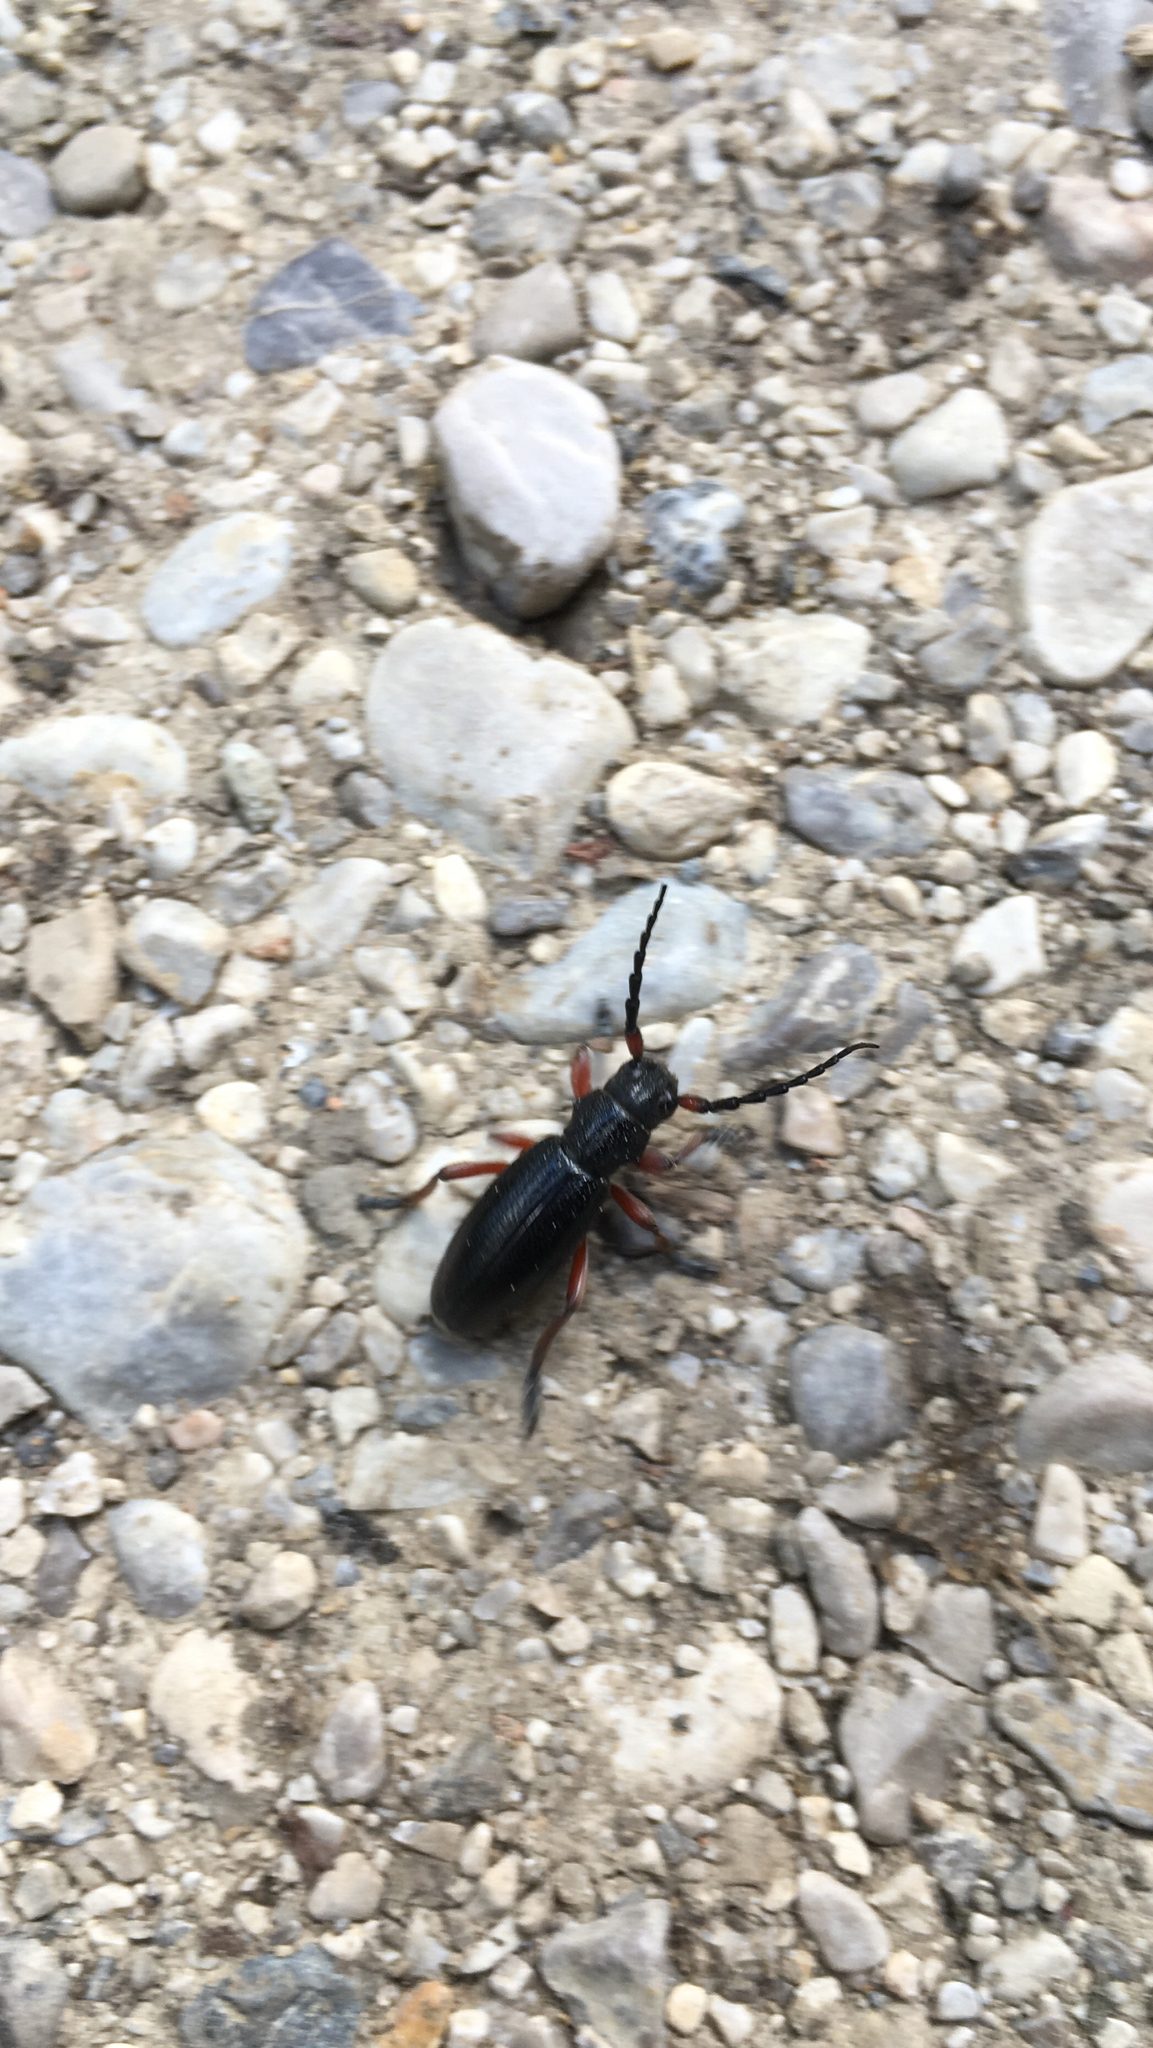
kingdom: Animalia
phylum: Arthropoda
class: Insecta
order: Coleoptera
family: Cerambycidae
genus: Dorcadion
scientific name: Dorcadion fulvum
